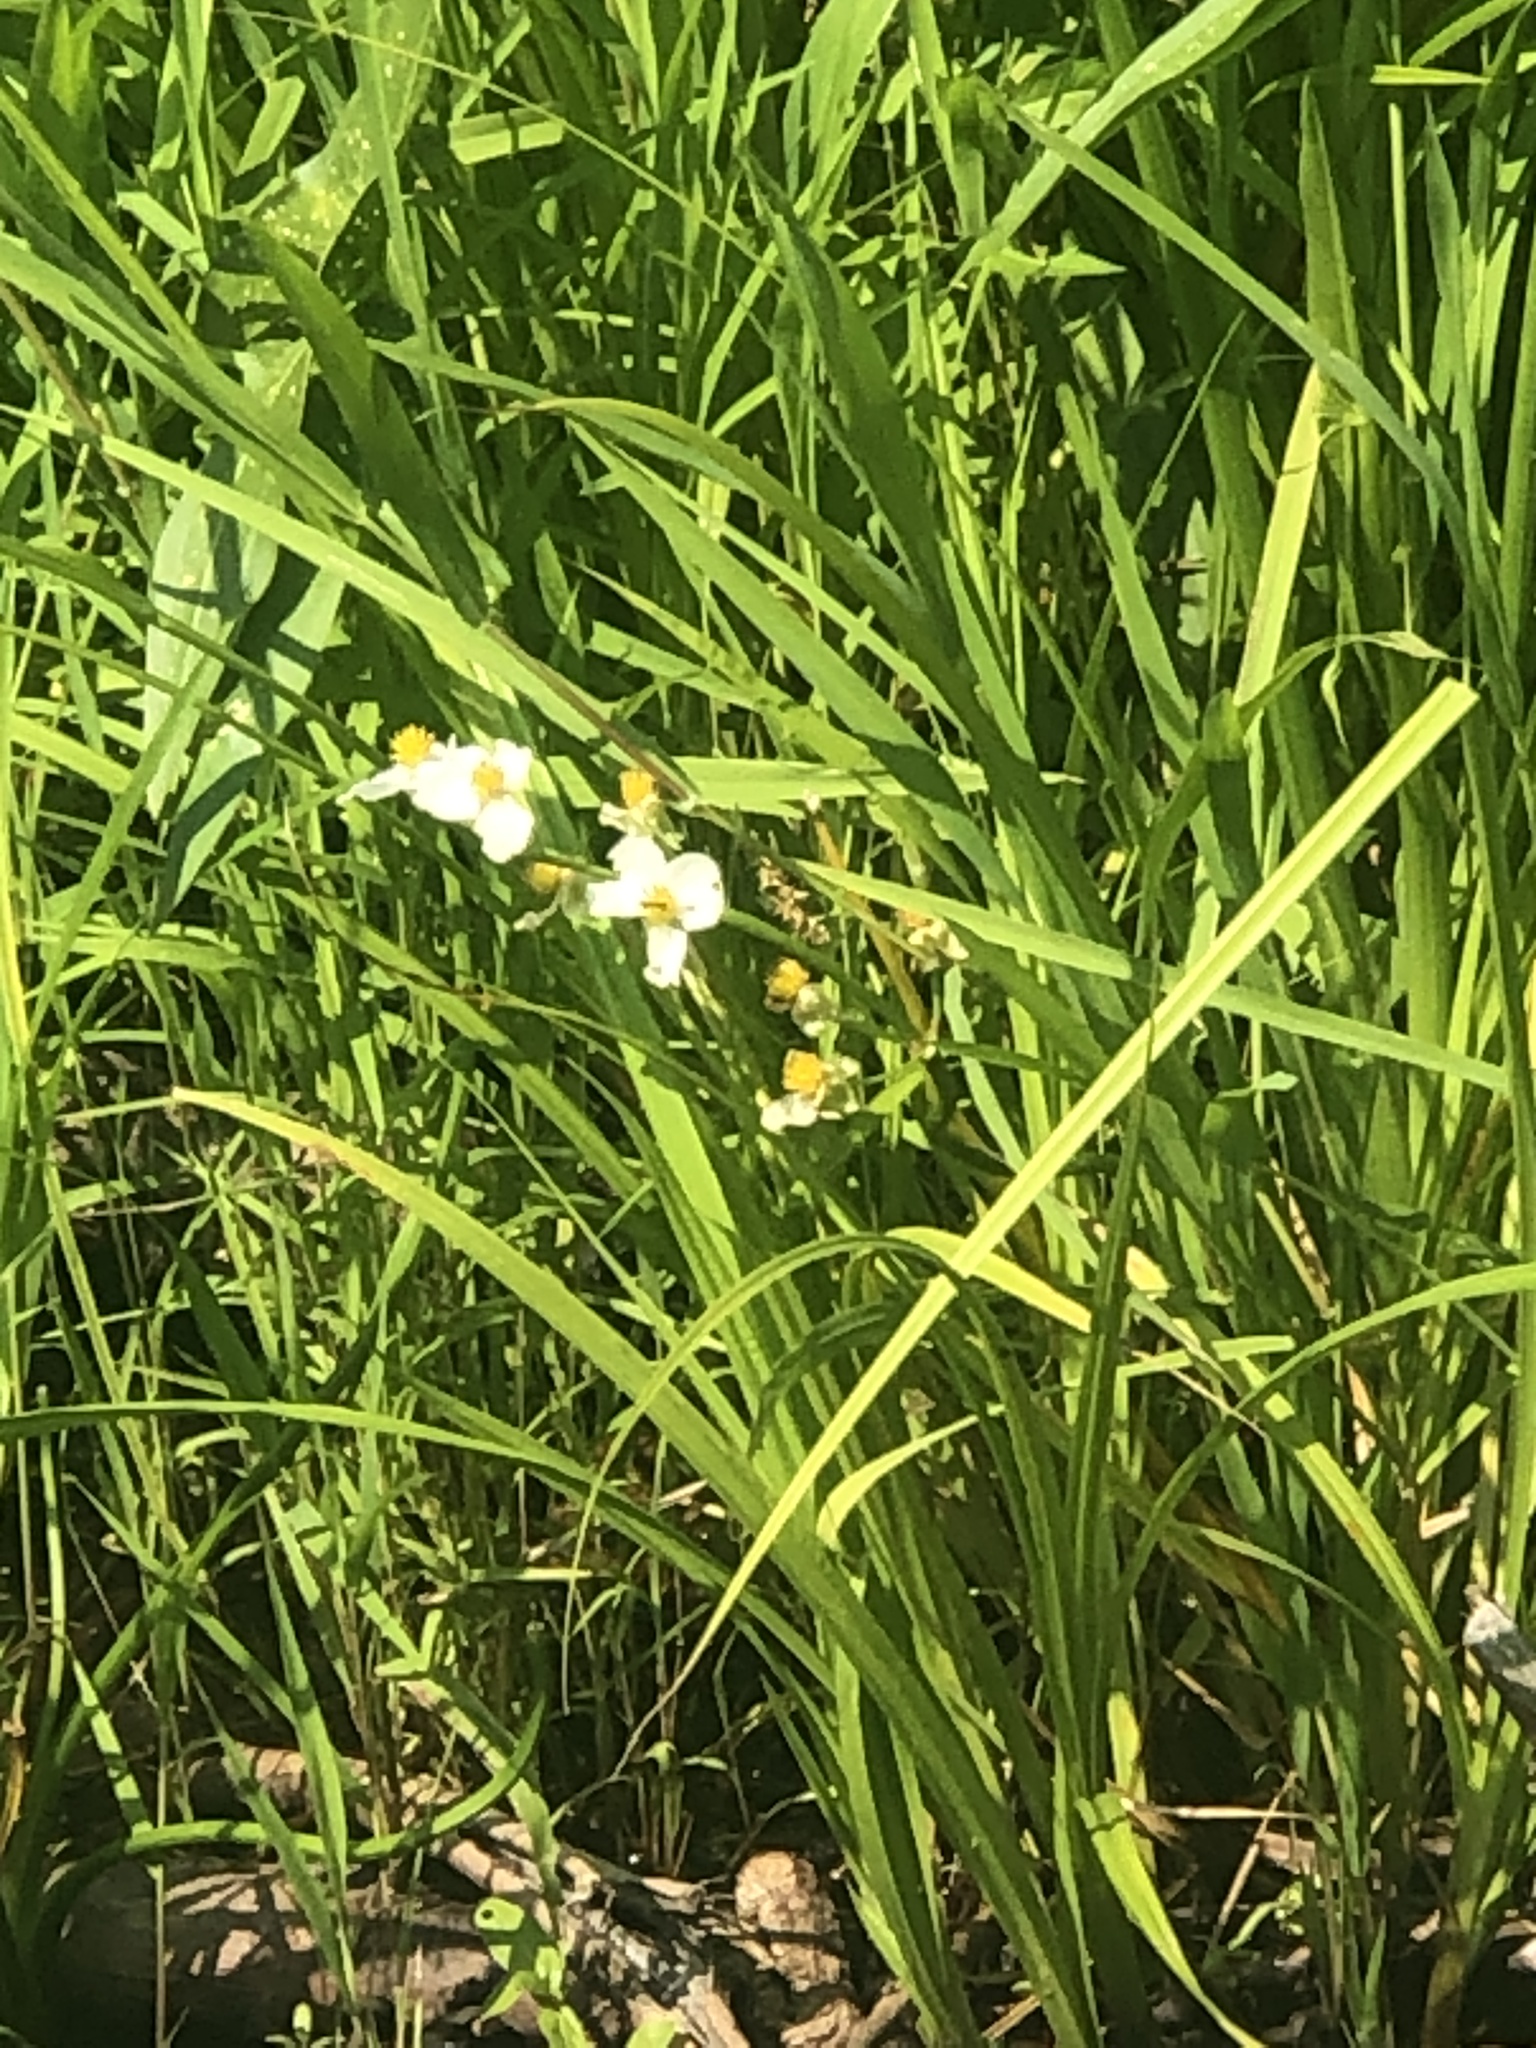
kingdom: Plantae
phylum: Tracheophyta
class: Liliopsida
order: Alismatales
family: Alismataceae
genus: Sagittaria
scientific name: Sagittaria latifolia
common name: Duck-potato
